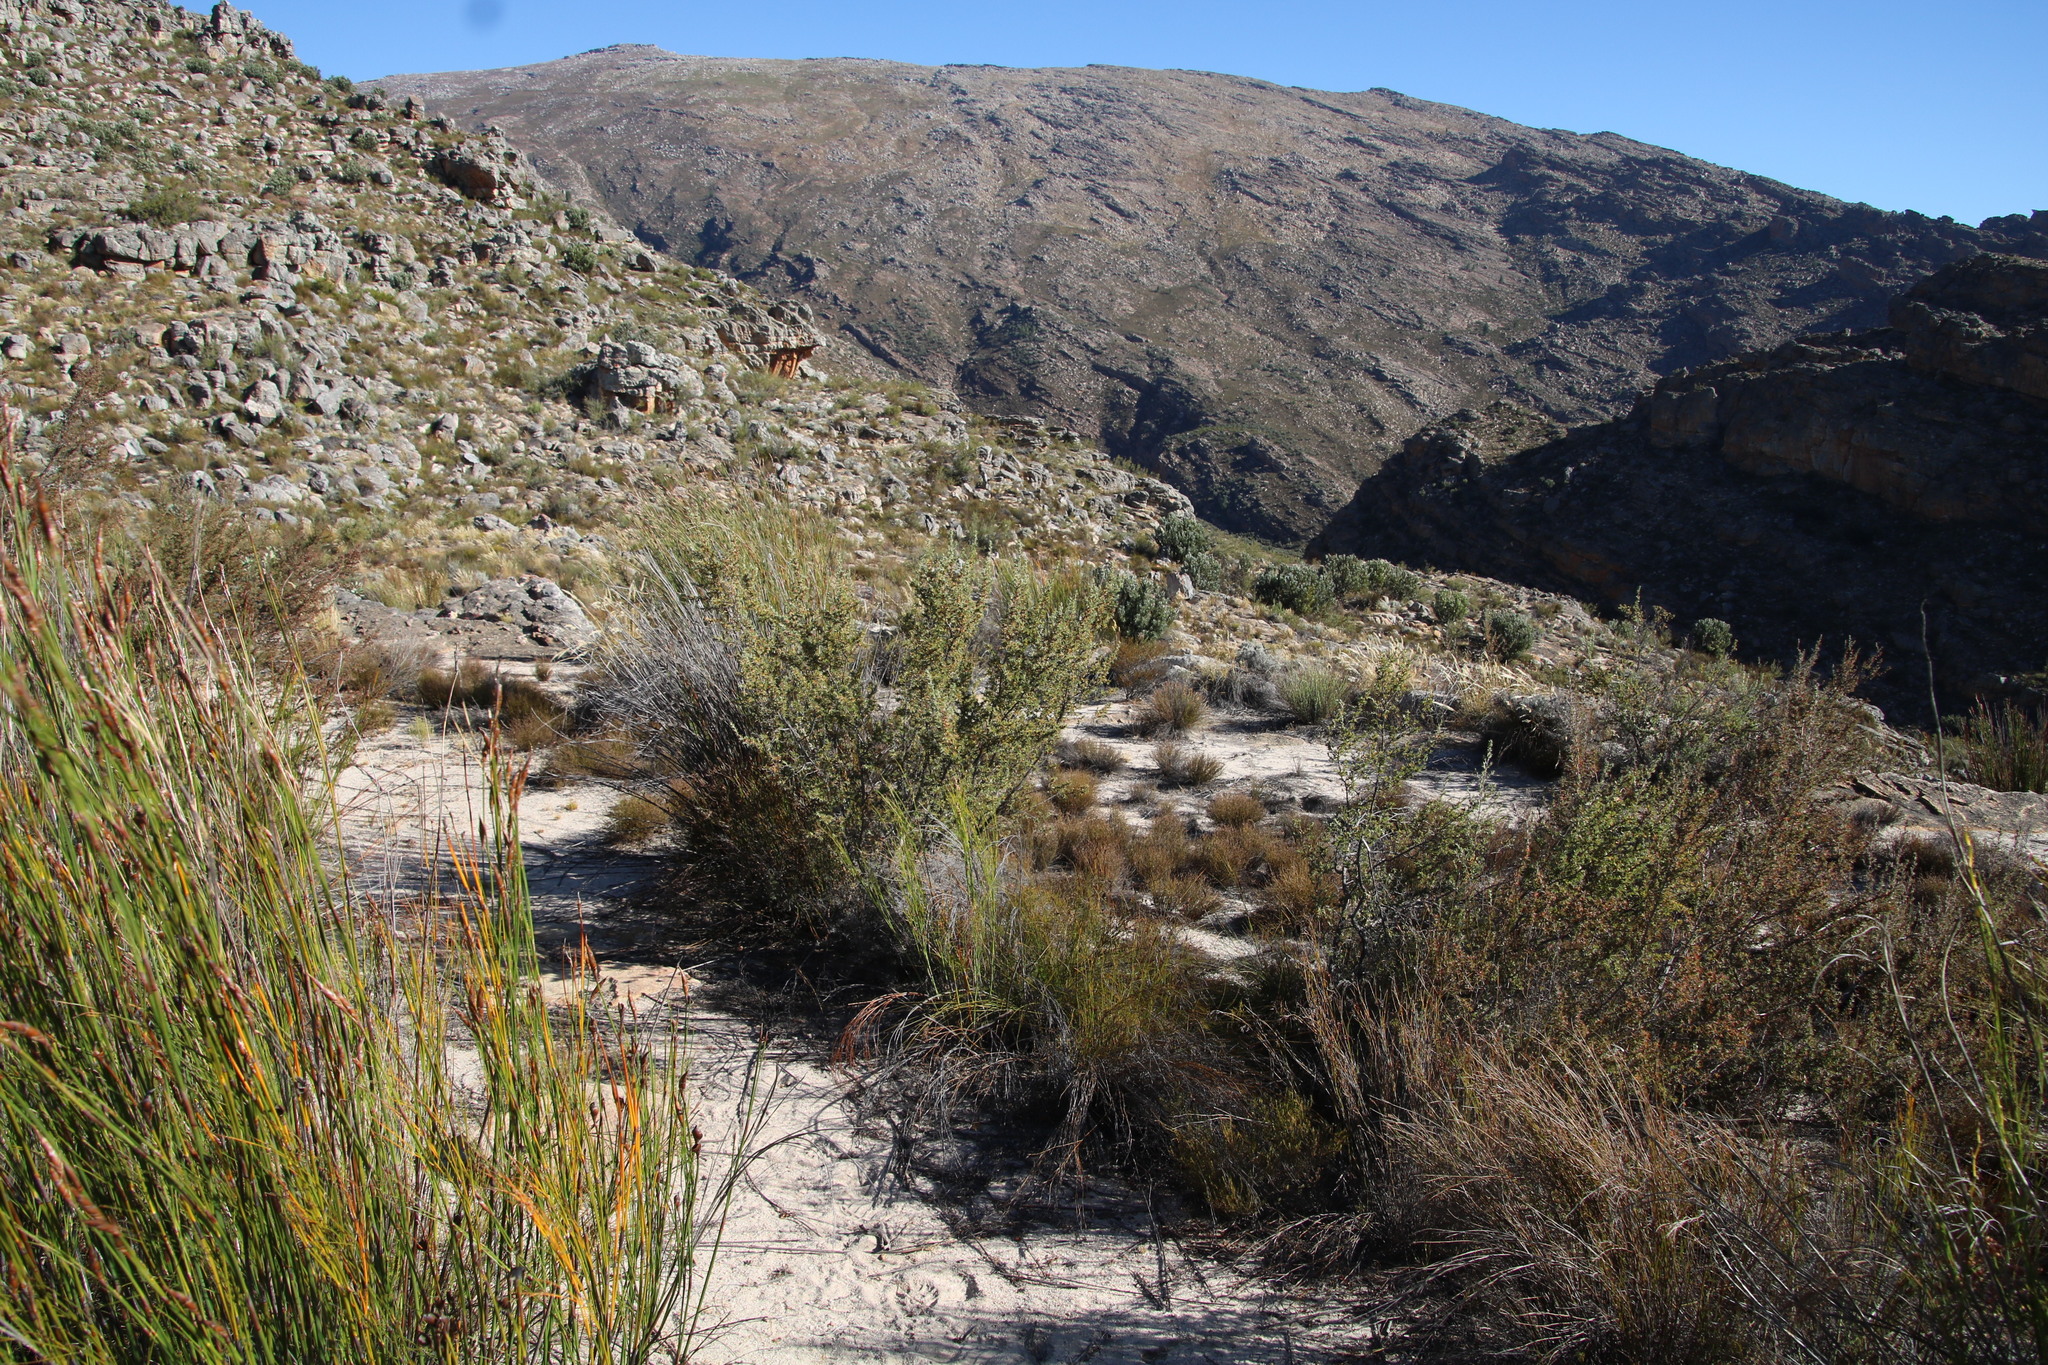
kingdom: Plantae
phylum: Tracheophyta
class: Magnoliopsida
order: Rosales
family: Rosaceae
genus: Cliffortia
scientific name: Cliffortia ruscifolia
